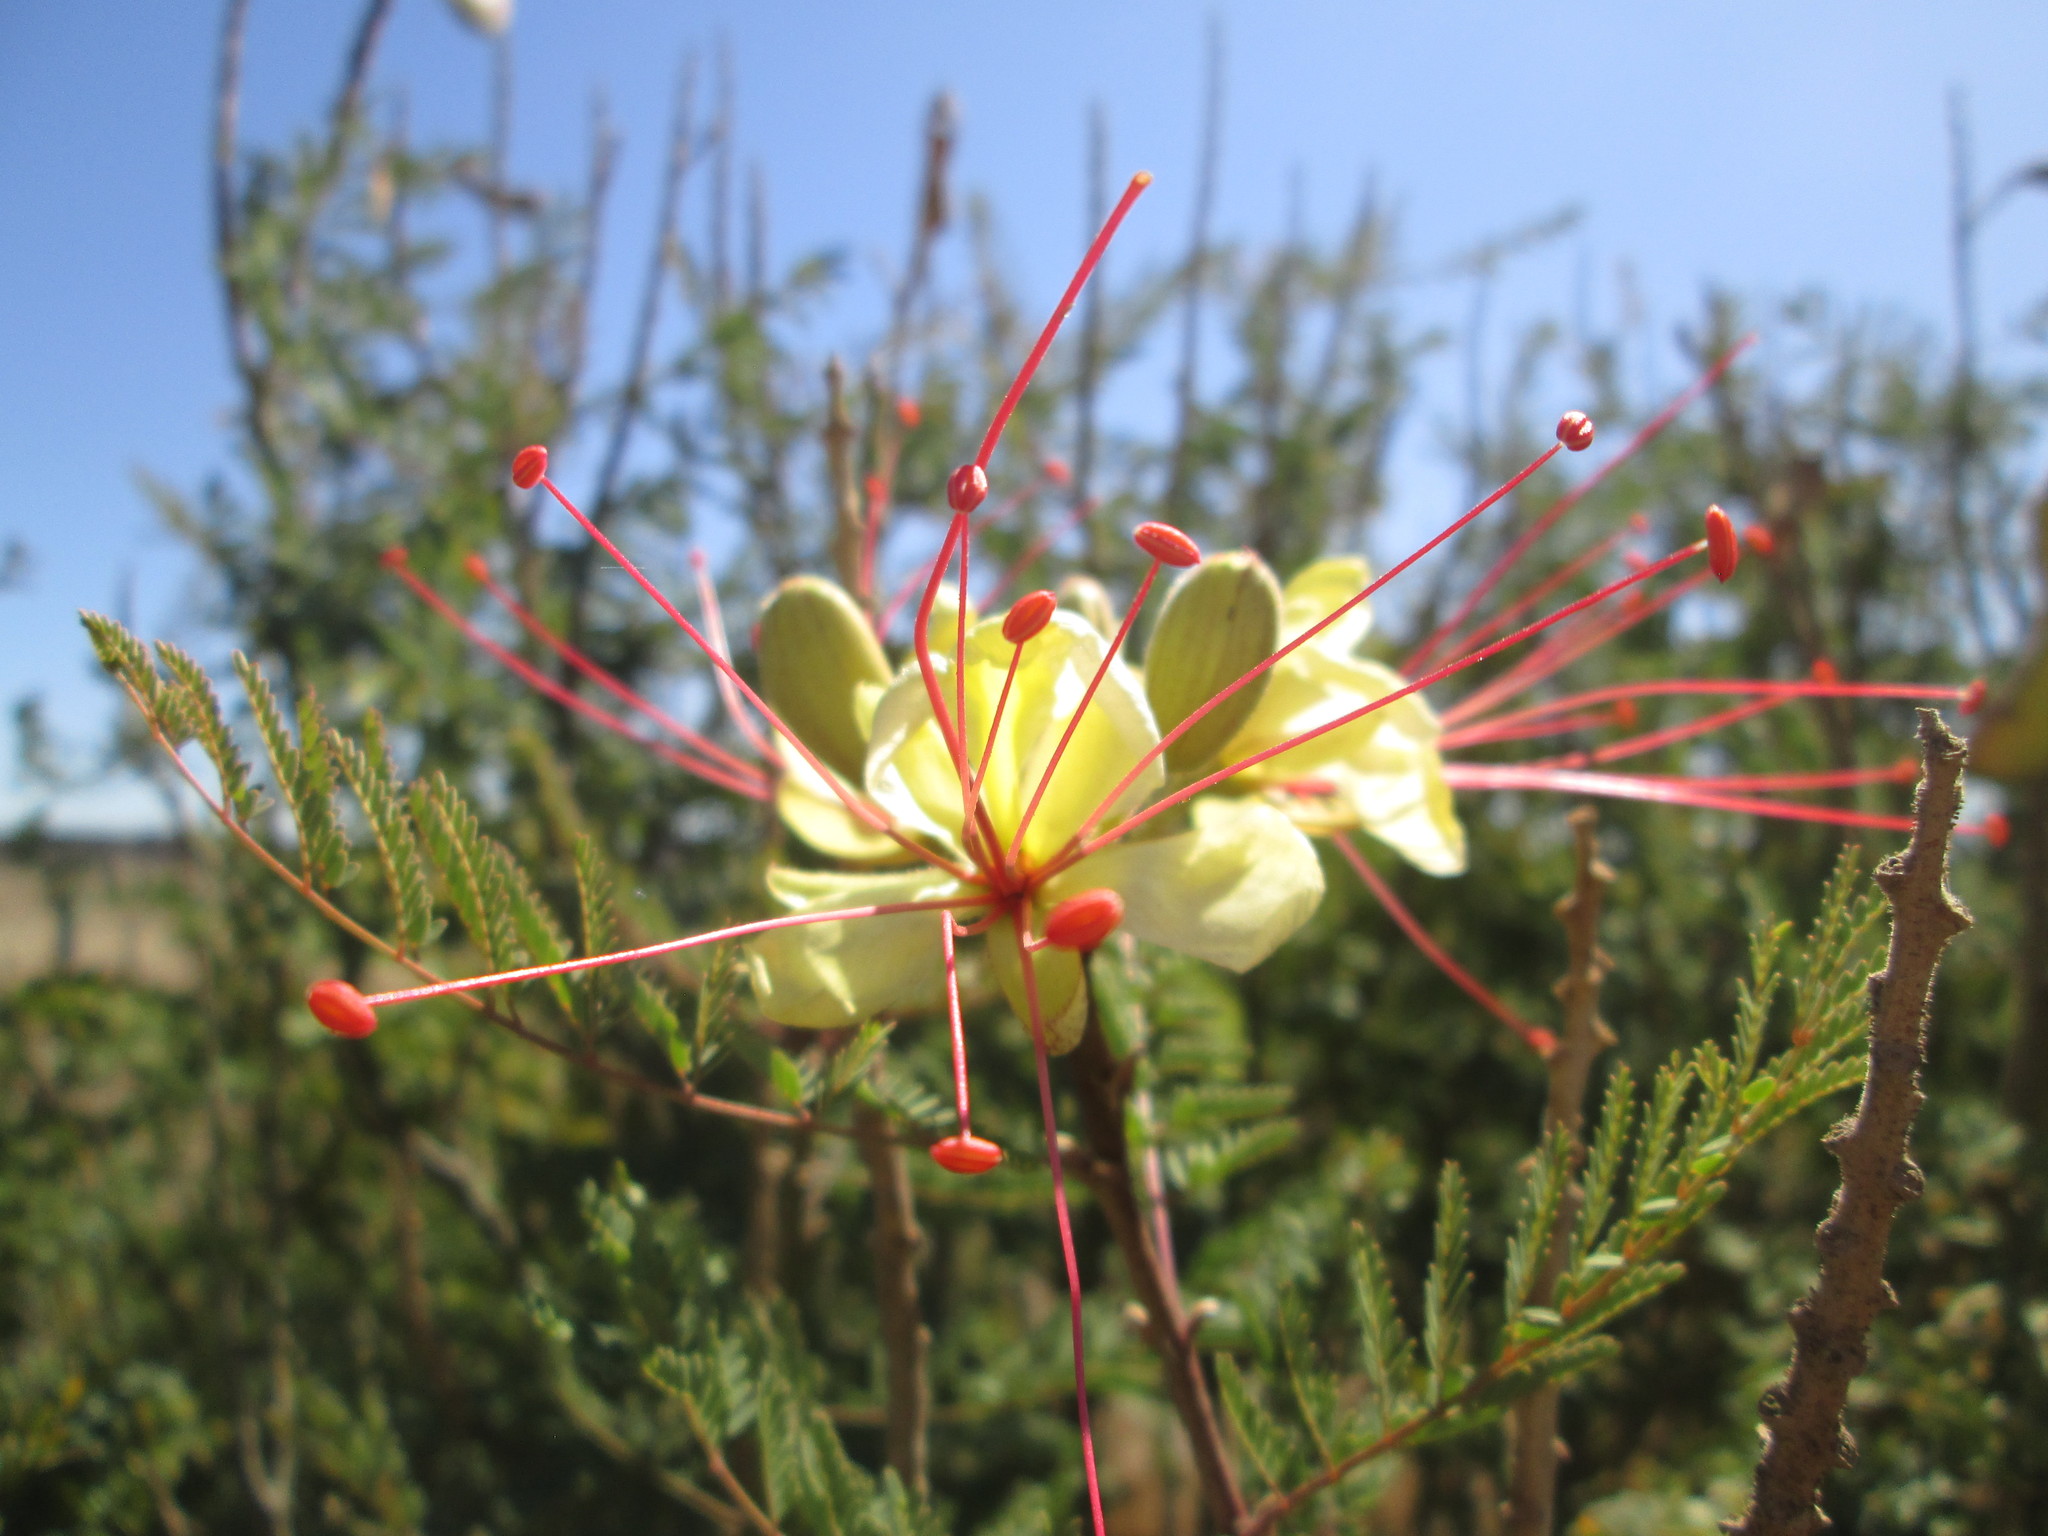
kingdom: Plantae
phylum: Tracheophyta
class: Magnoliopsida
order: Fabales
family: Fabaceae
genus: Erythrostemon
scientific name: Erythrostemon gilliesii
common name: Bird-of-paradise shrub
